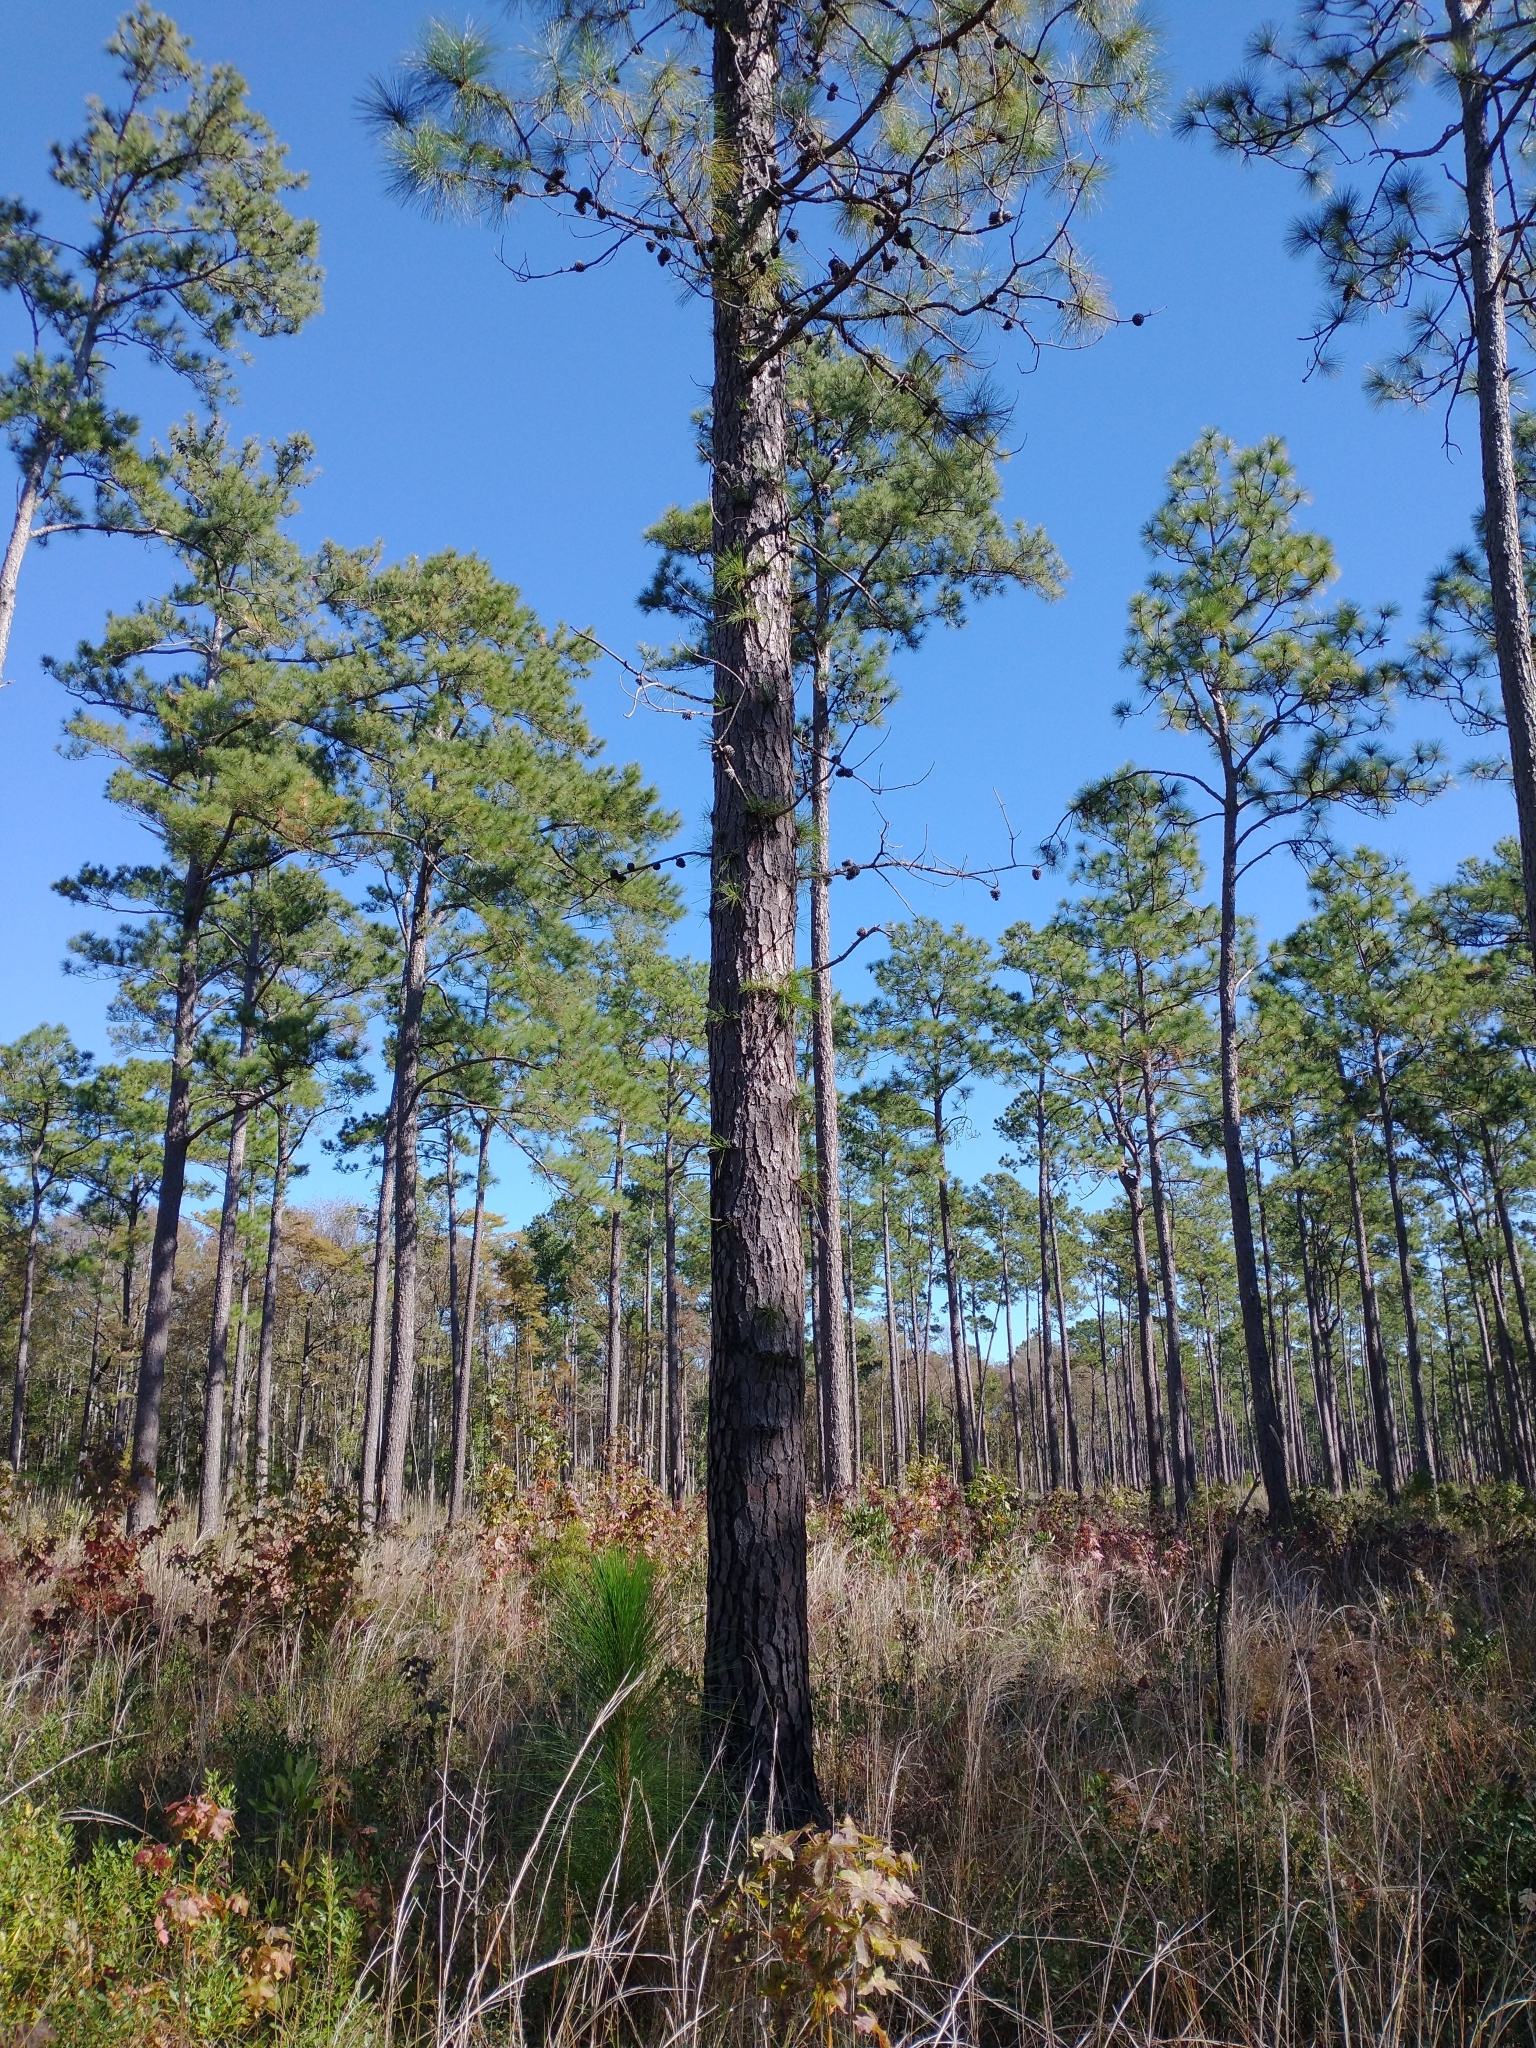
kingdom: Plantae
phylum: Tracheophyta
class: Pinopsida
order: Pinales
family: Pinaceae
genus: Pinus
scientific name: Pinus serotina
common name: Marsh pine
